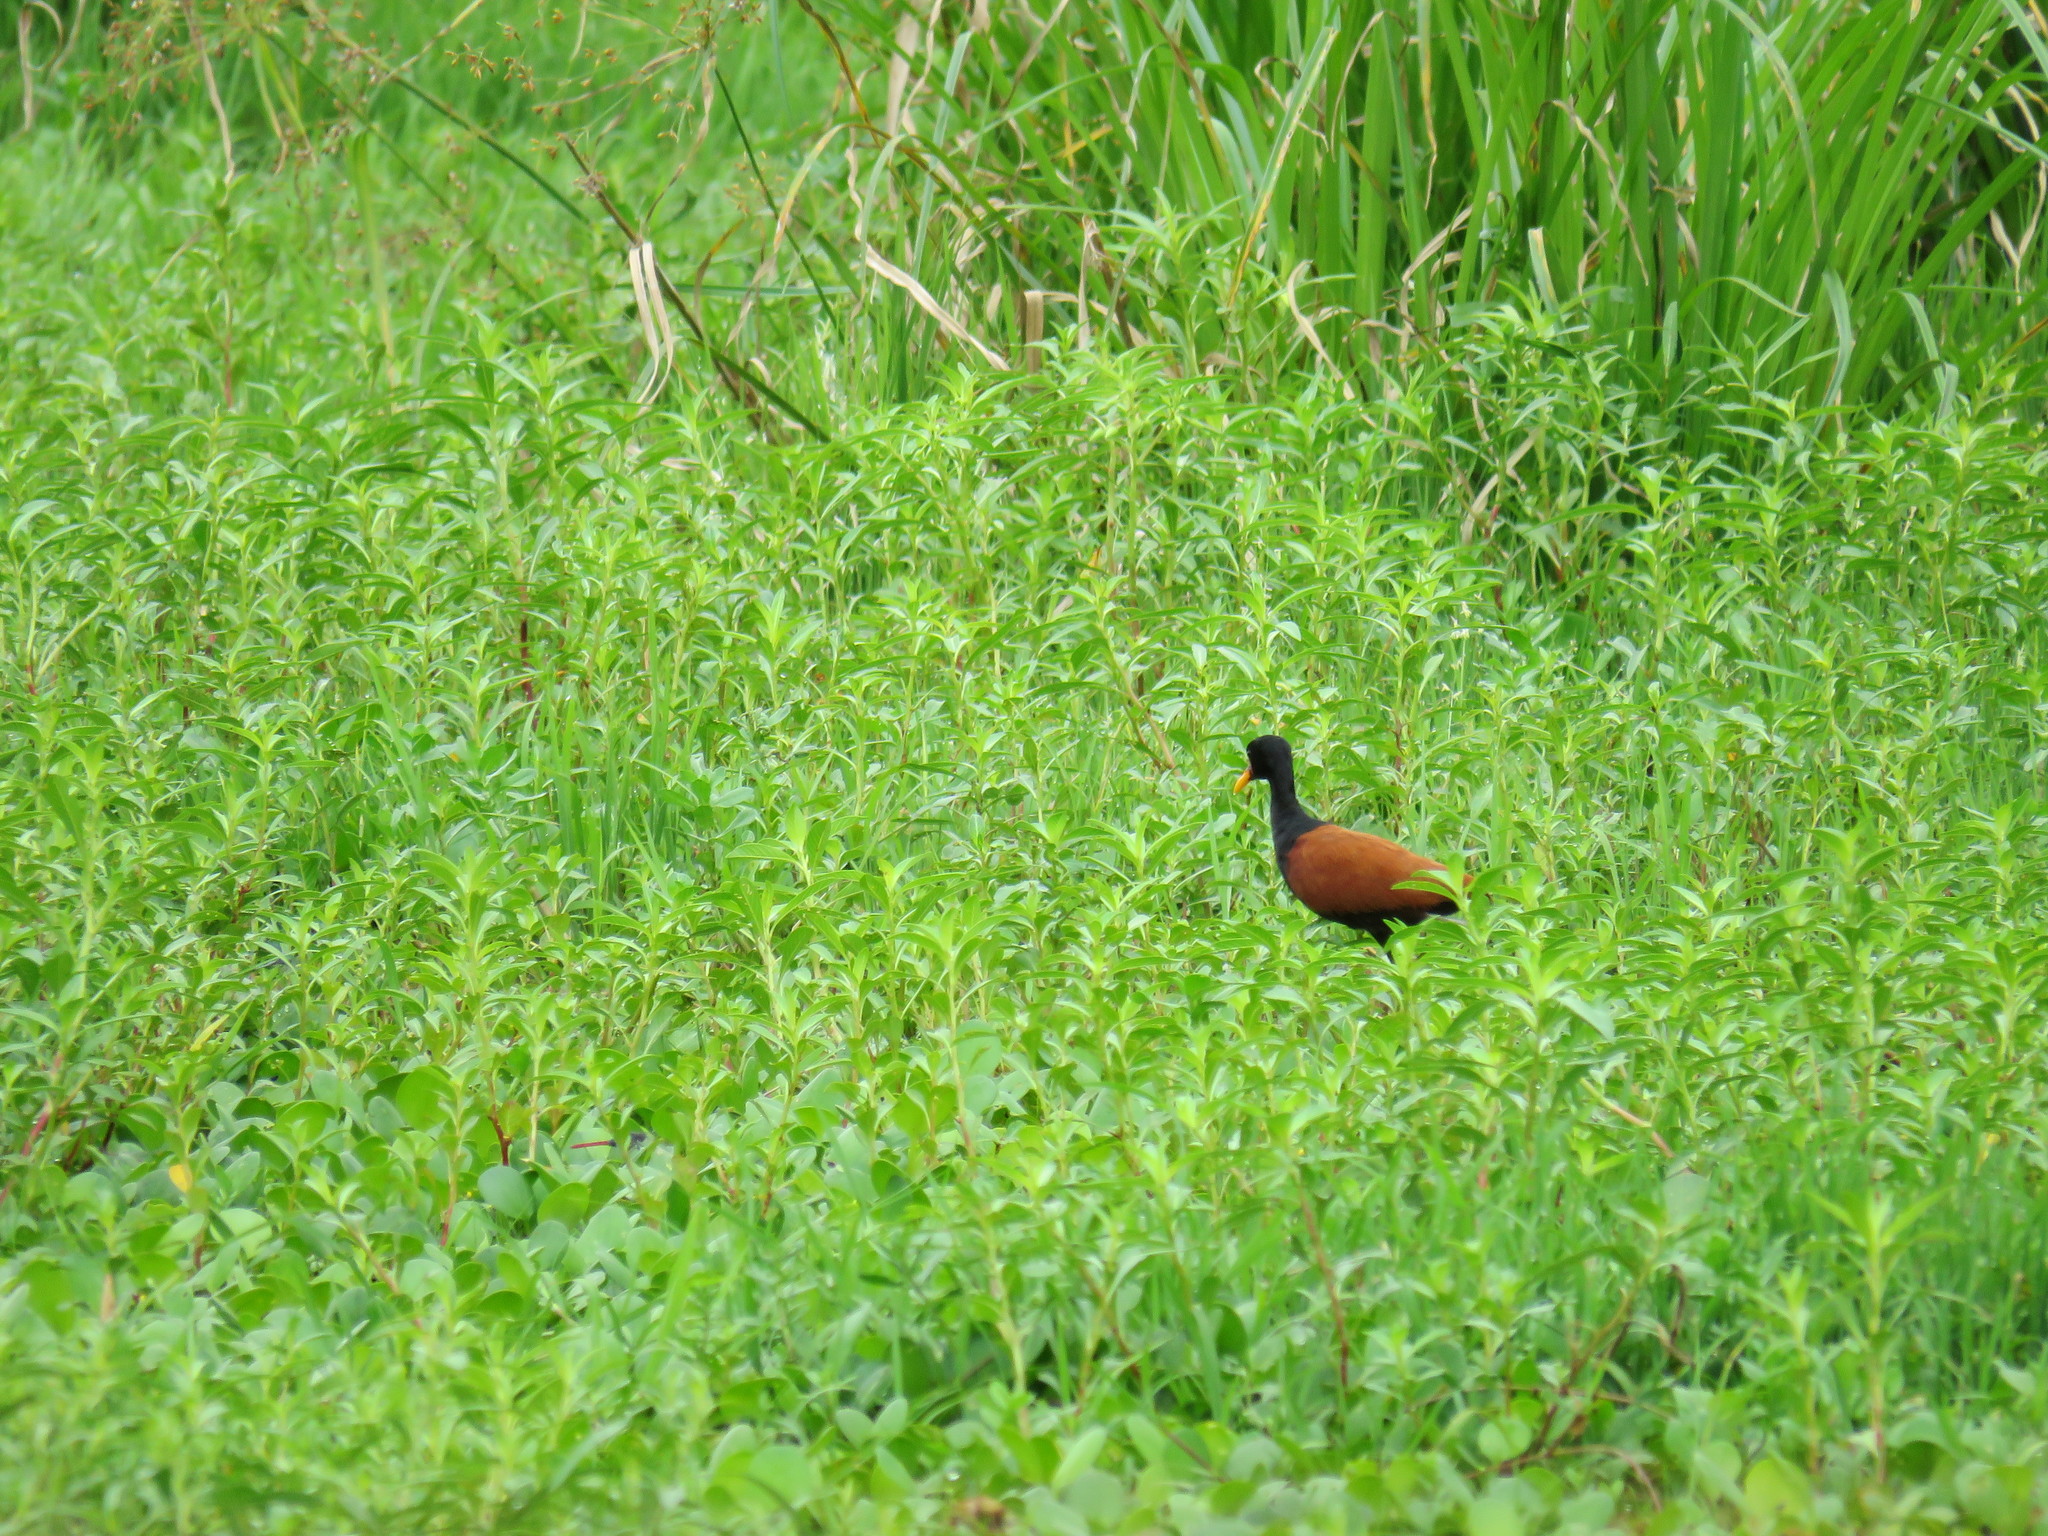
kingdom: Animalia
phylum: Chordata
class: Aves
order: Charadriiformes
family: Jacanidae
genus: Jacana
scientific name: Jacana jacana
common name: Wattled jacana
